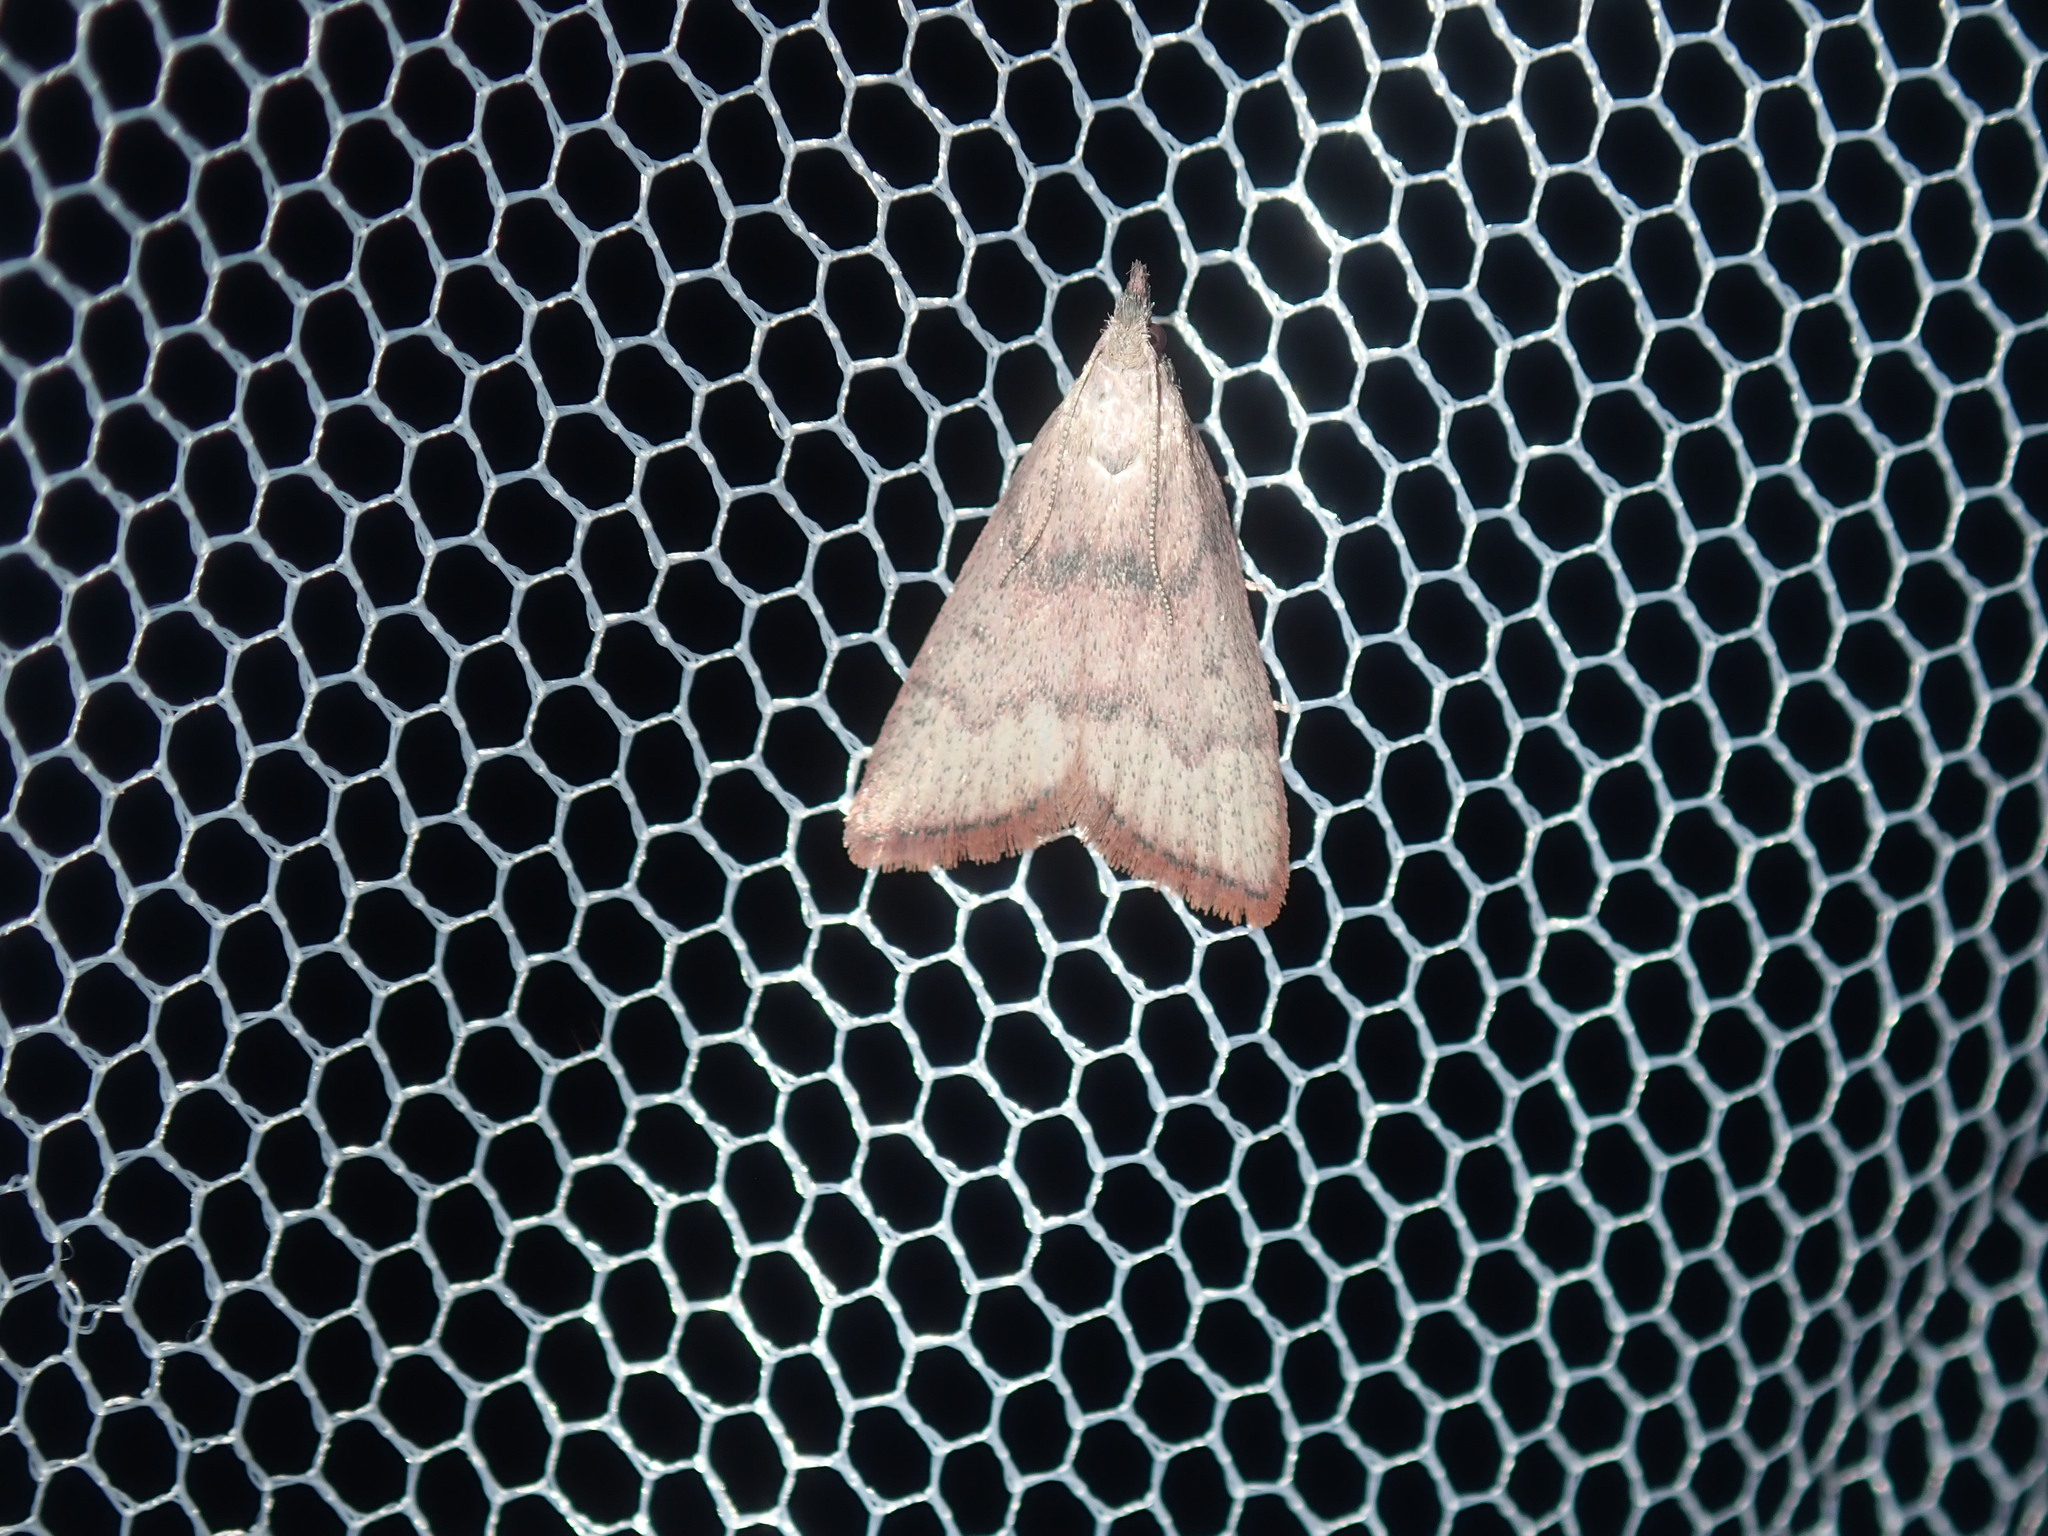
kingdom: Animalia
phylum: Arthropoda
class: Insecta
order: Lepidoptera
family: Pyralidae
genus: Callionyma
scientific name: Callionyma sarcodes
